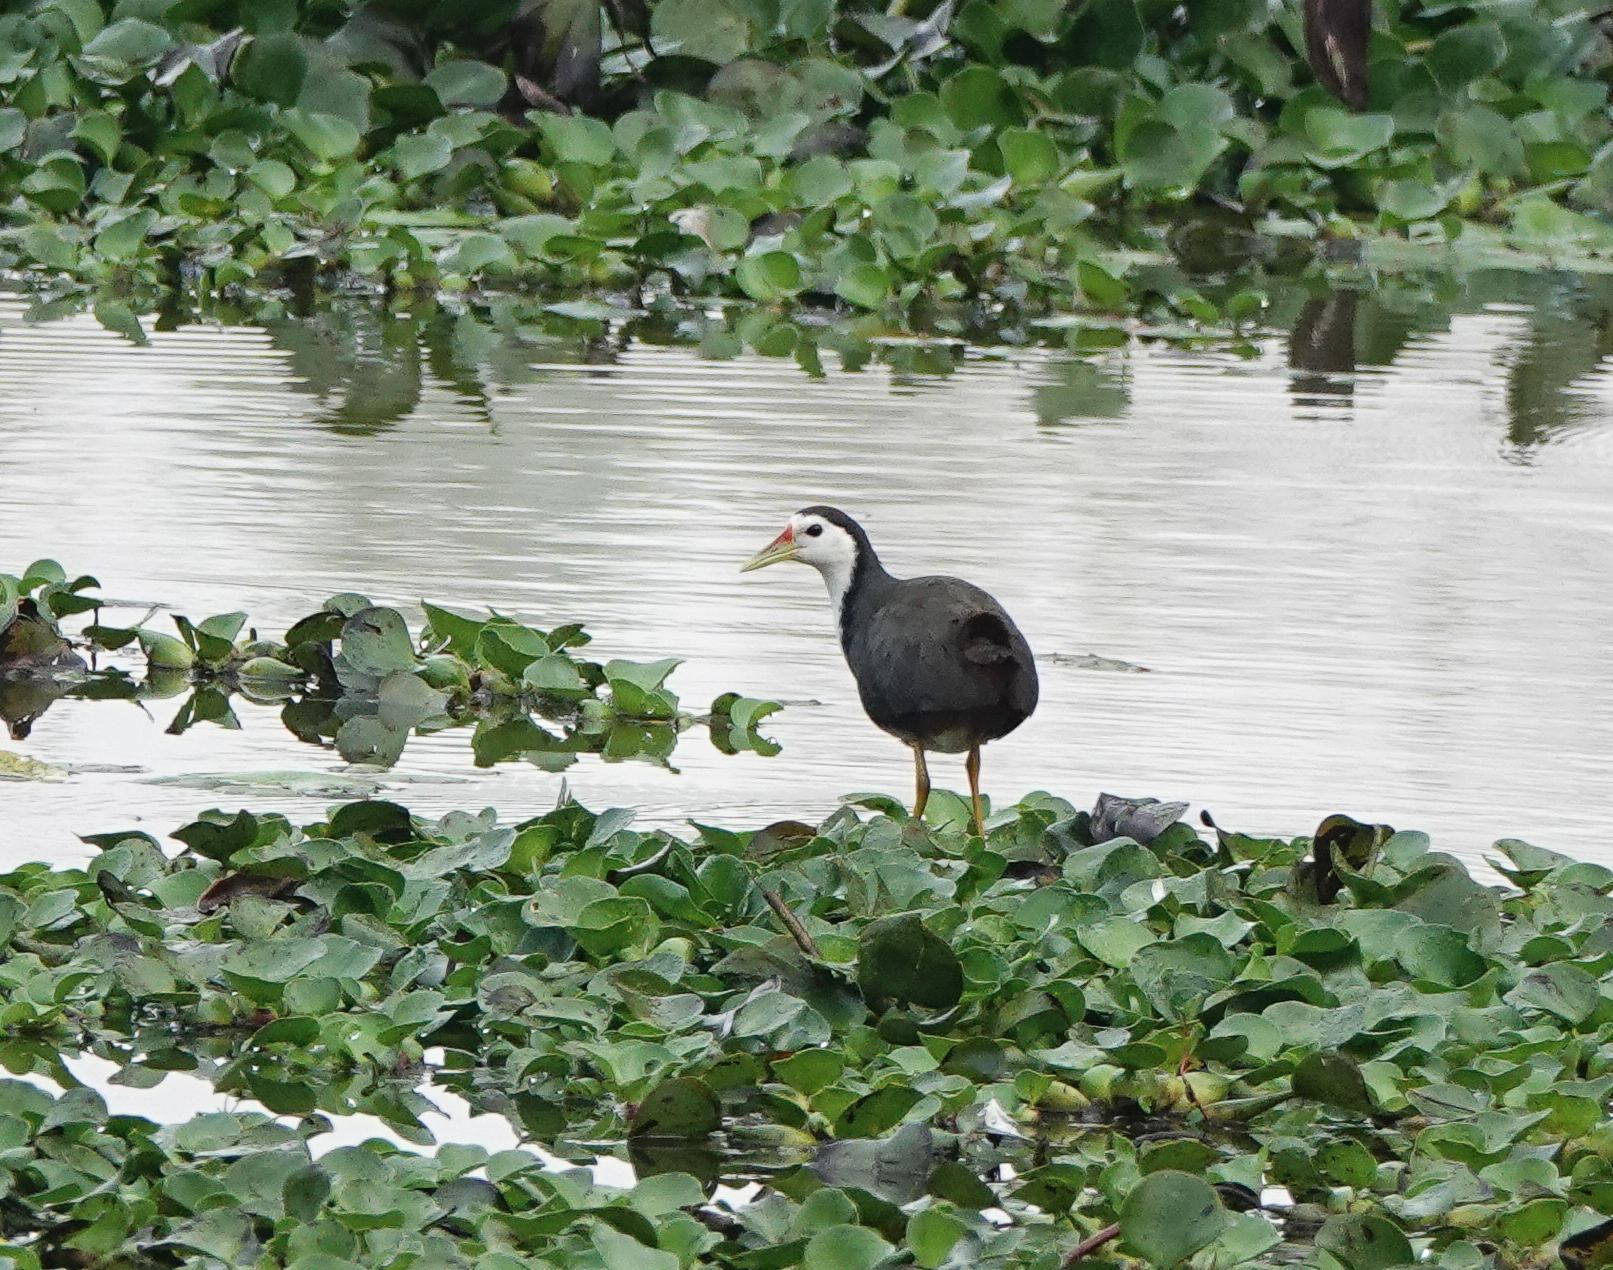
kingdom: Animalia
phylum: Chordata
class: Aves
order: Gruiformes
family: Rallidae
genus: Amaurornis
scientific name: Amaurornis phoenicurus
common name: White-breasted waterhen
